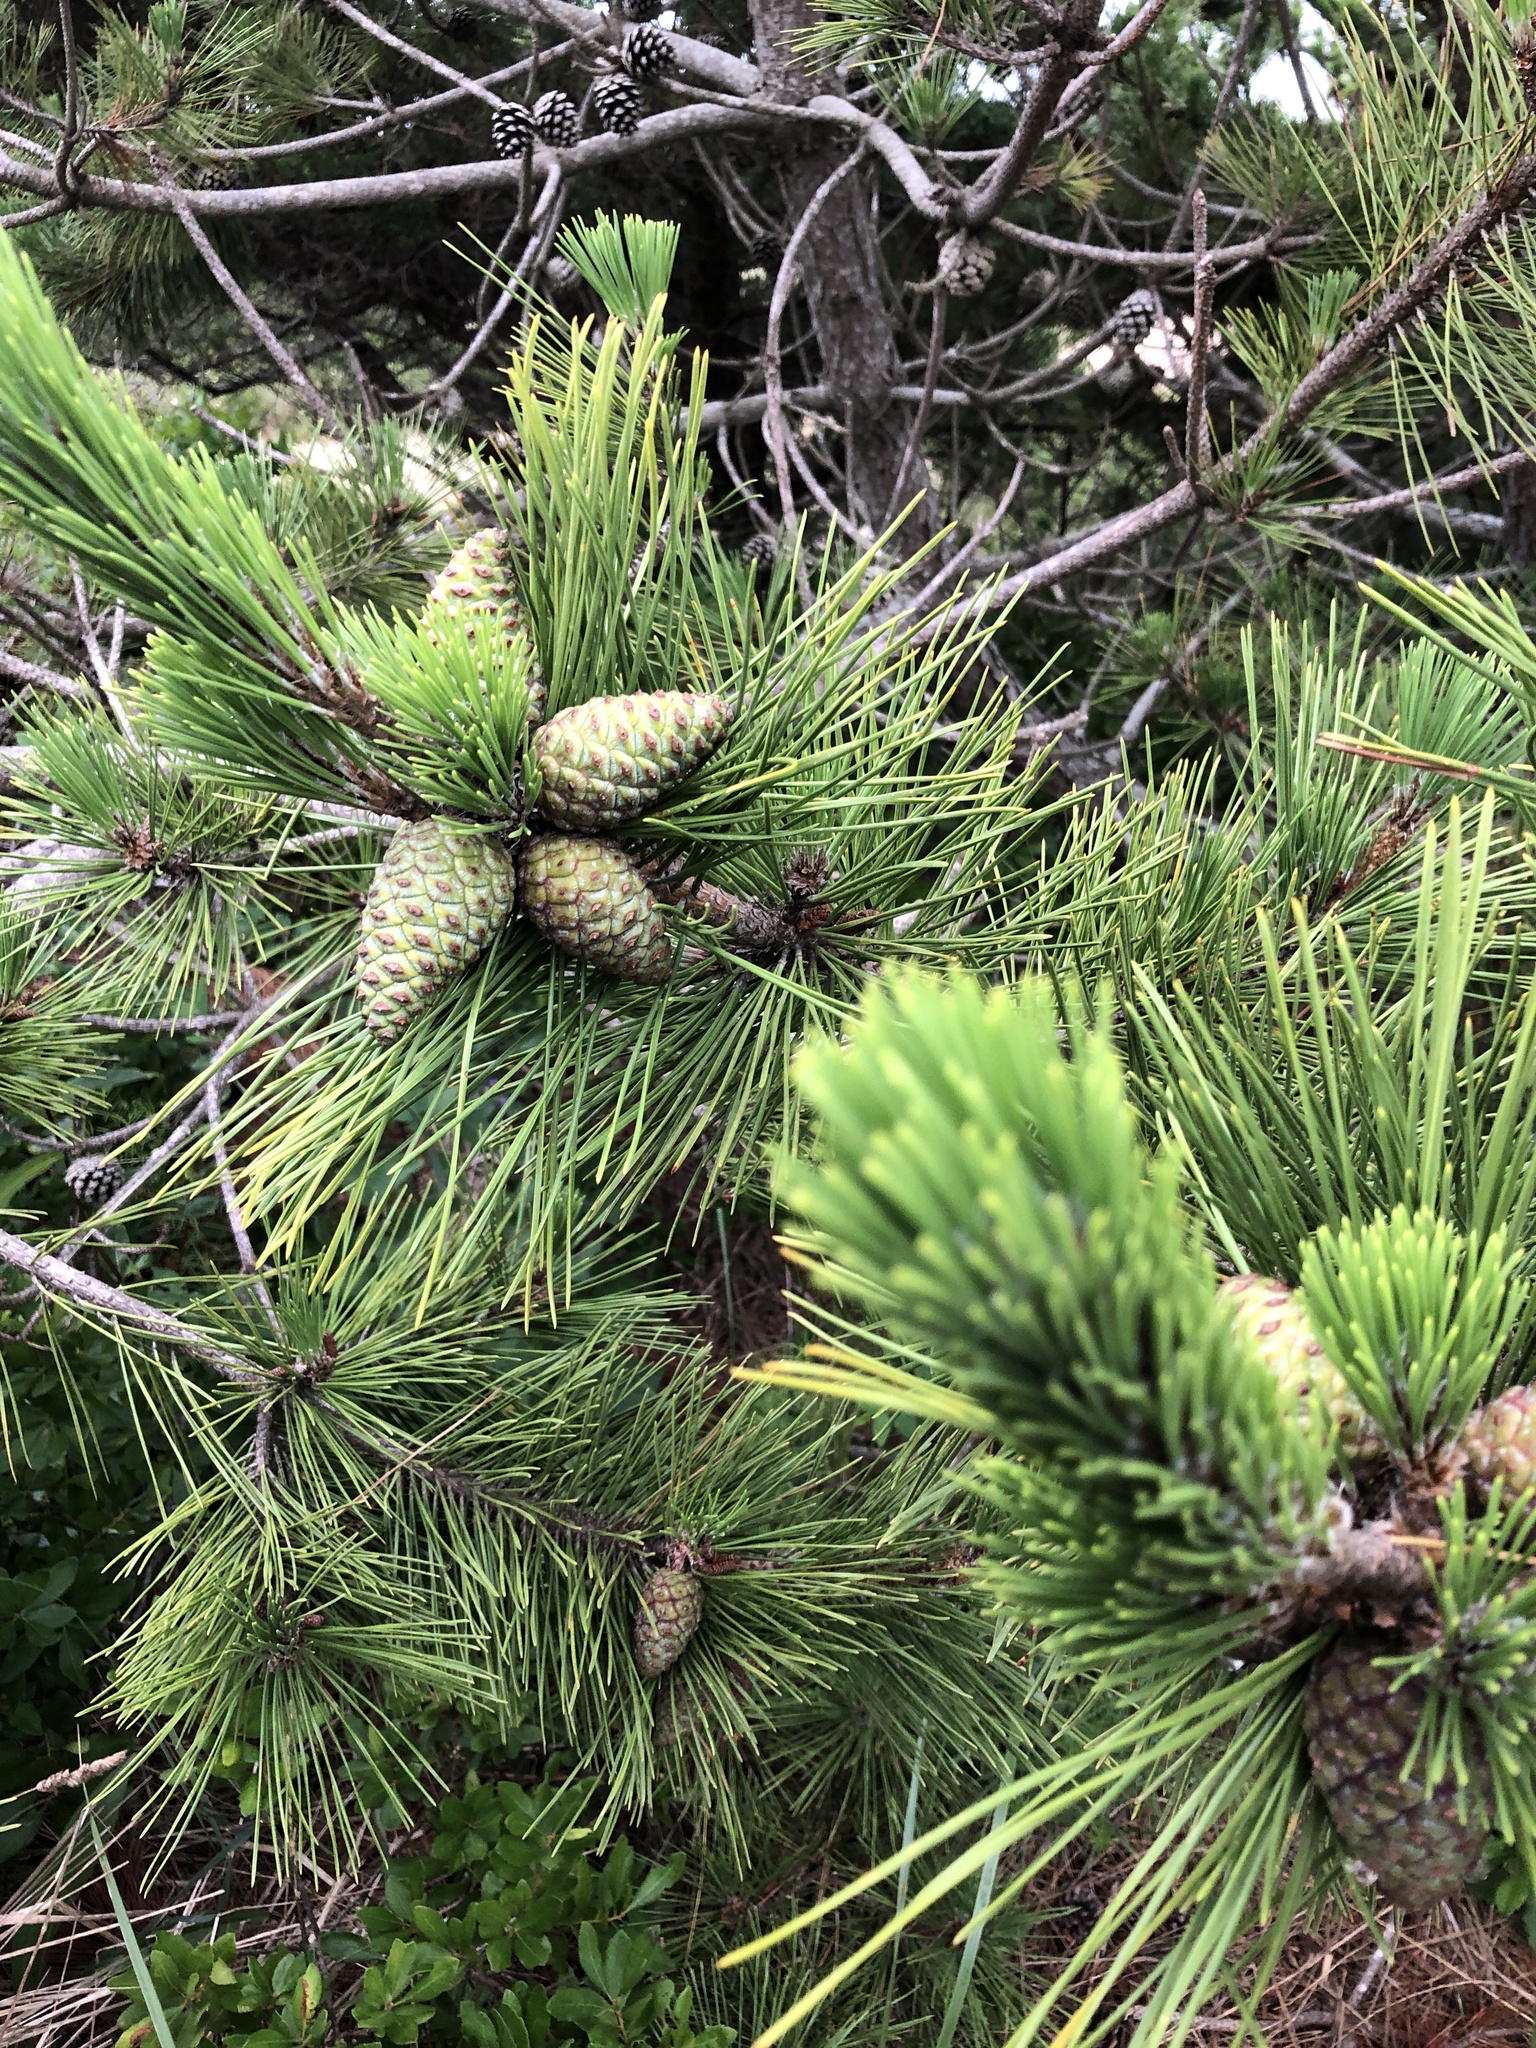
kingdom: Plantae
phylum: Tracheophyta
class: Pinopsida
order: Pinales
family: Pinaceae
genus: Pinus
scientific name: Pinus thunbergii
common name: Japanese black pine
